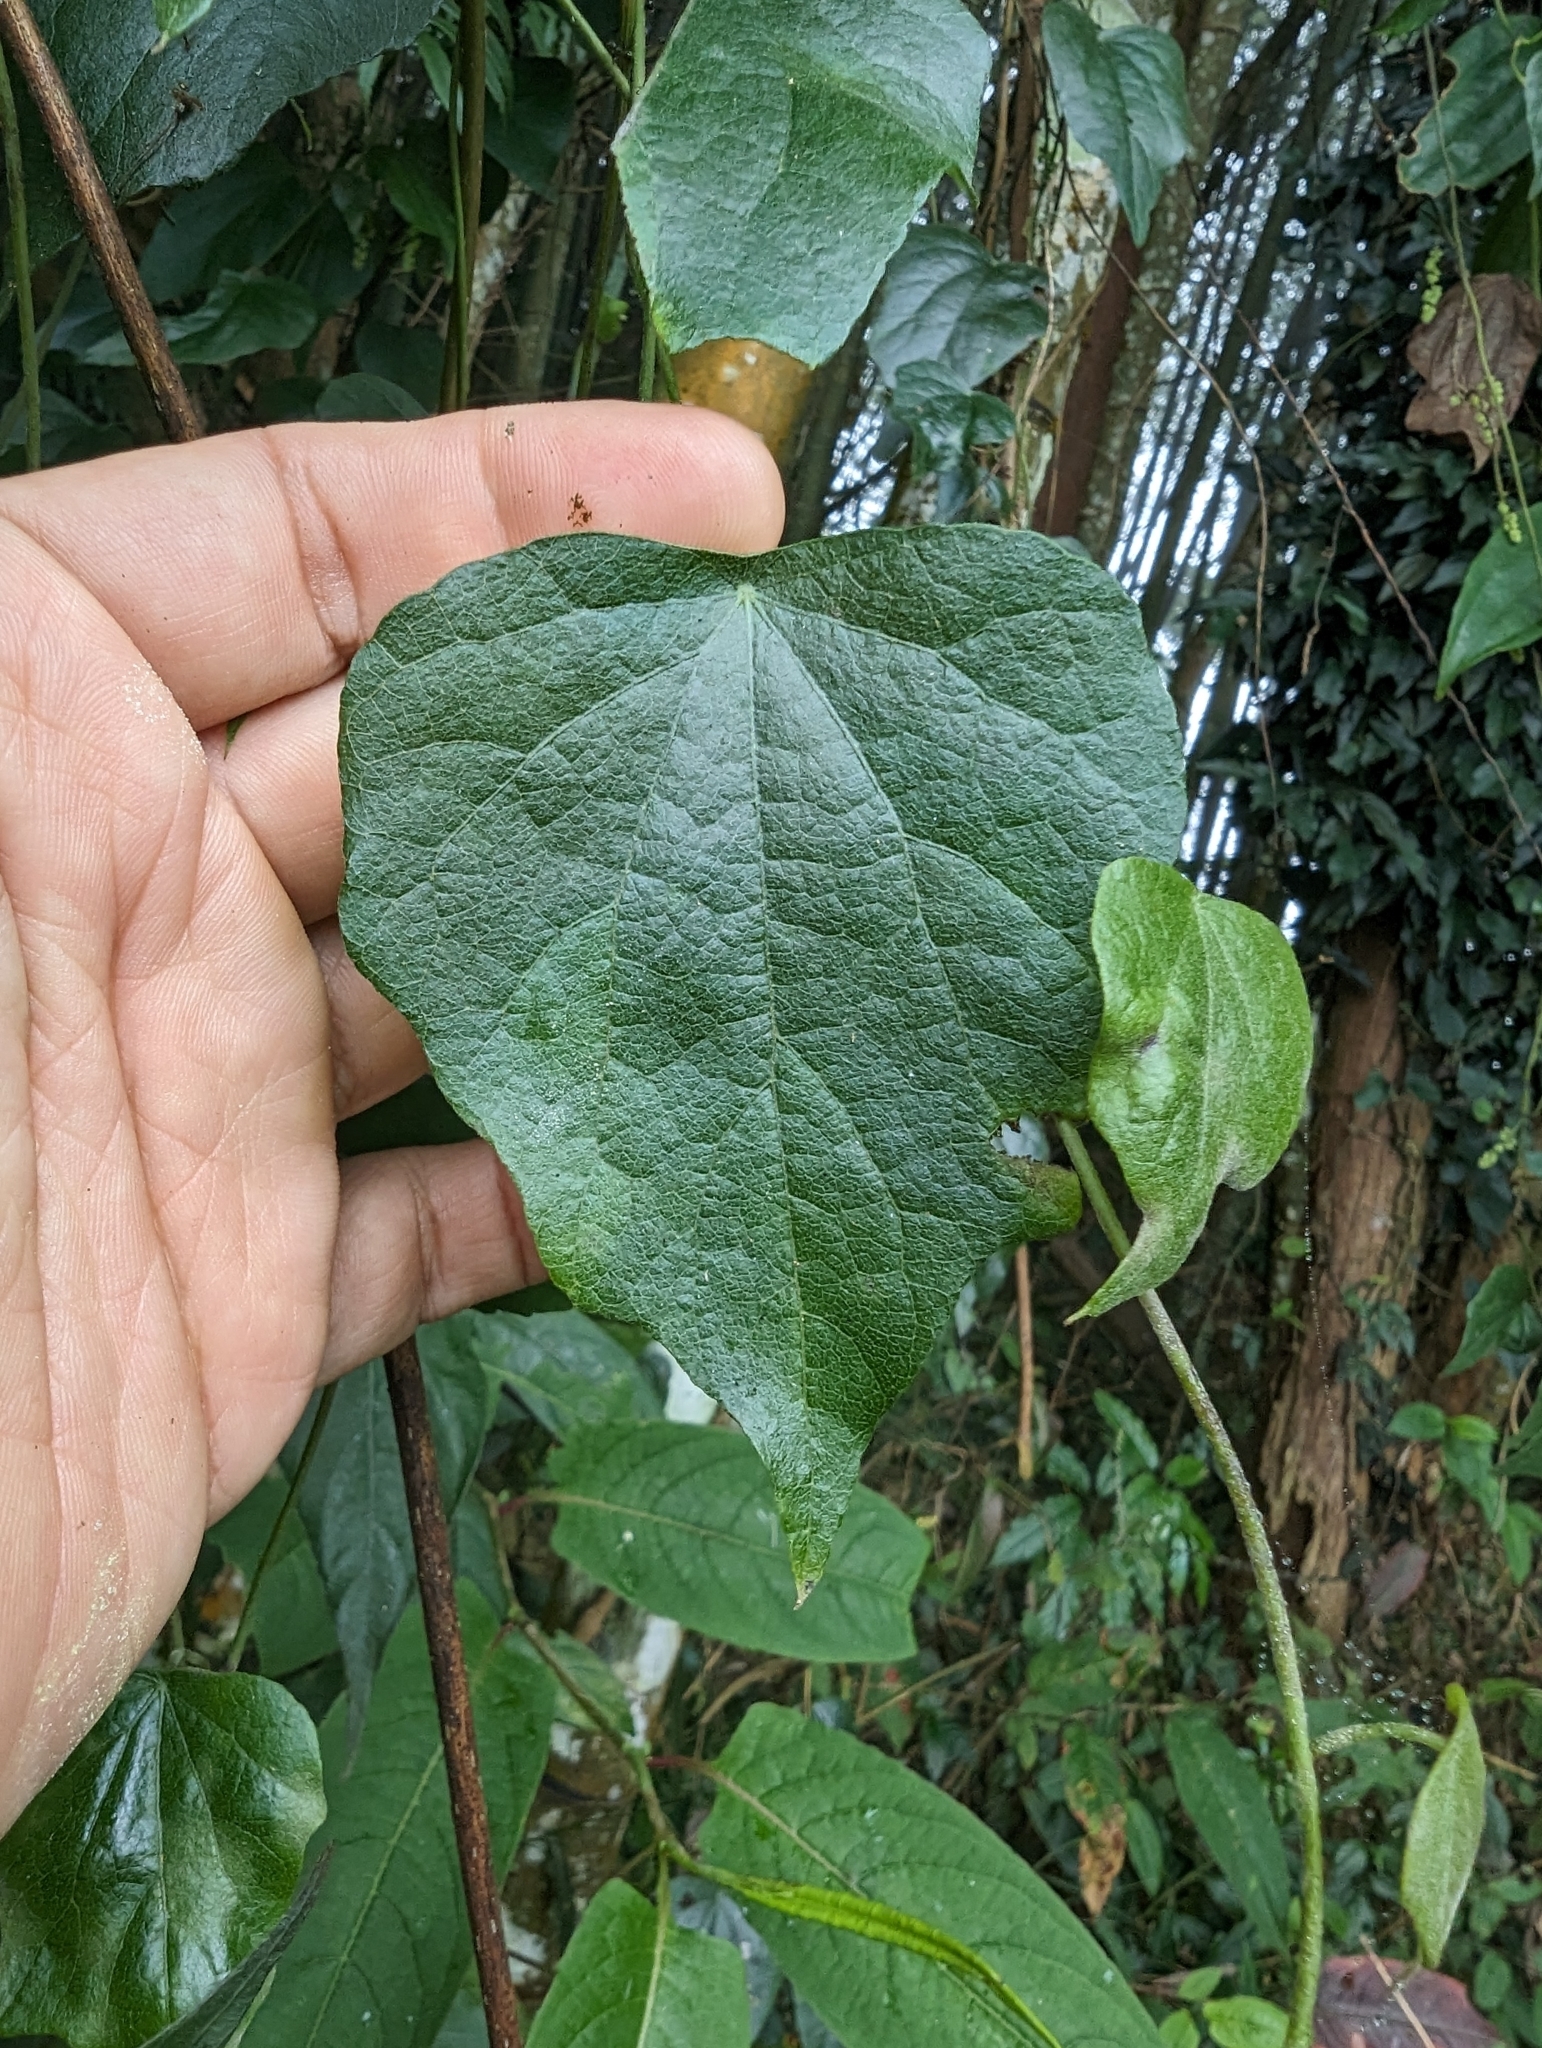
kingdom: Plantae
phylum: Tracheophyta
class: Magnoliopsida
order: Ranunculales
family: Menispermaceae
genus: Cyclea
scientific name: Cyclea ochiaiana
